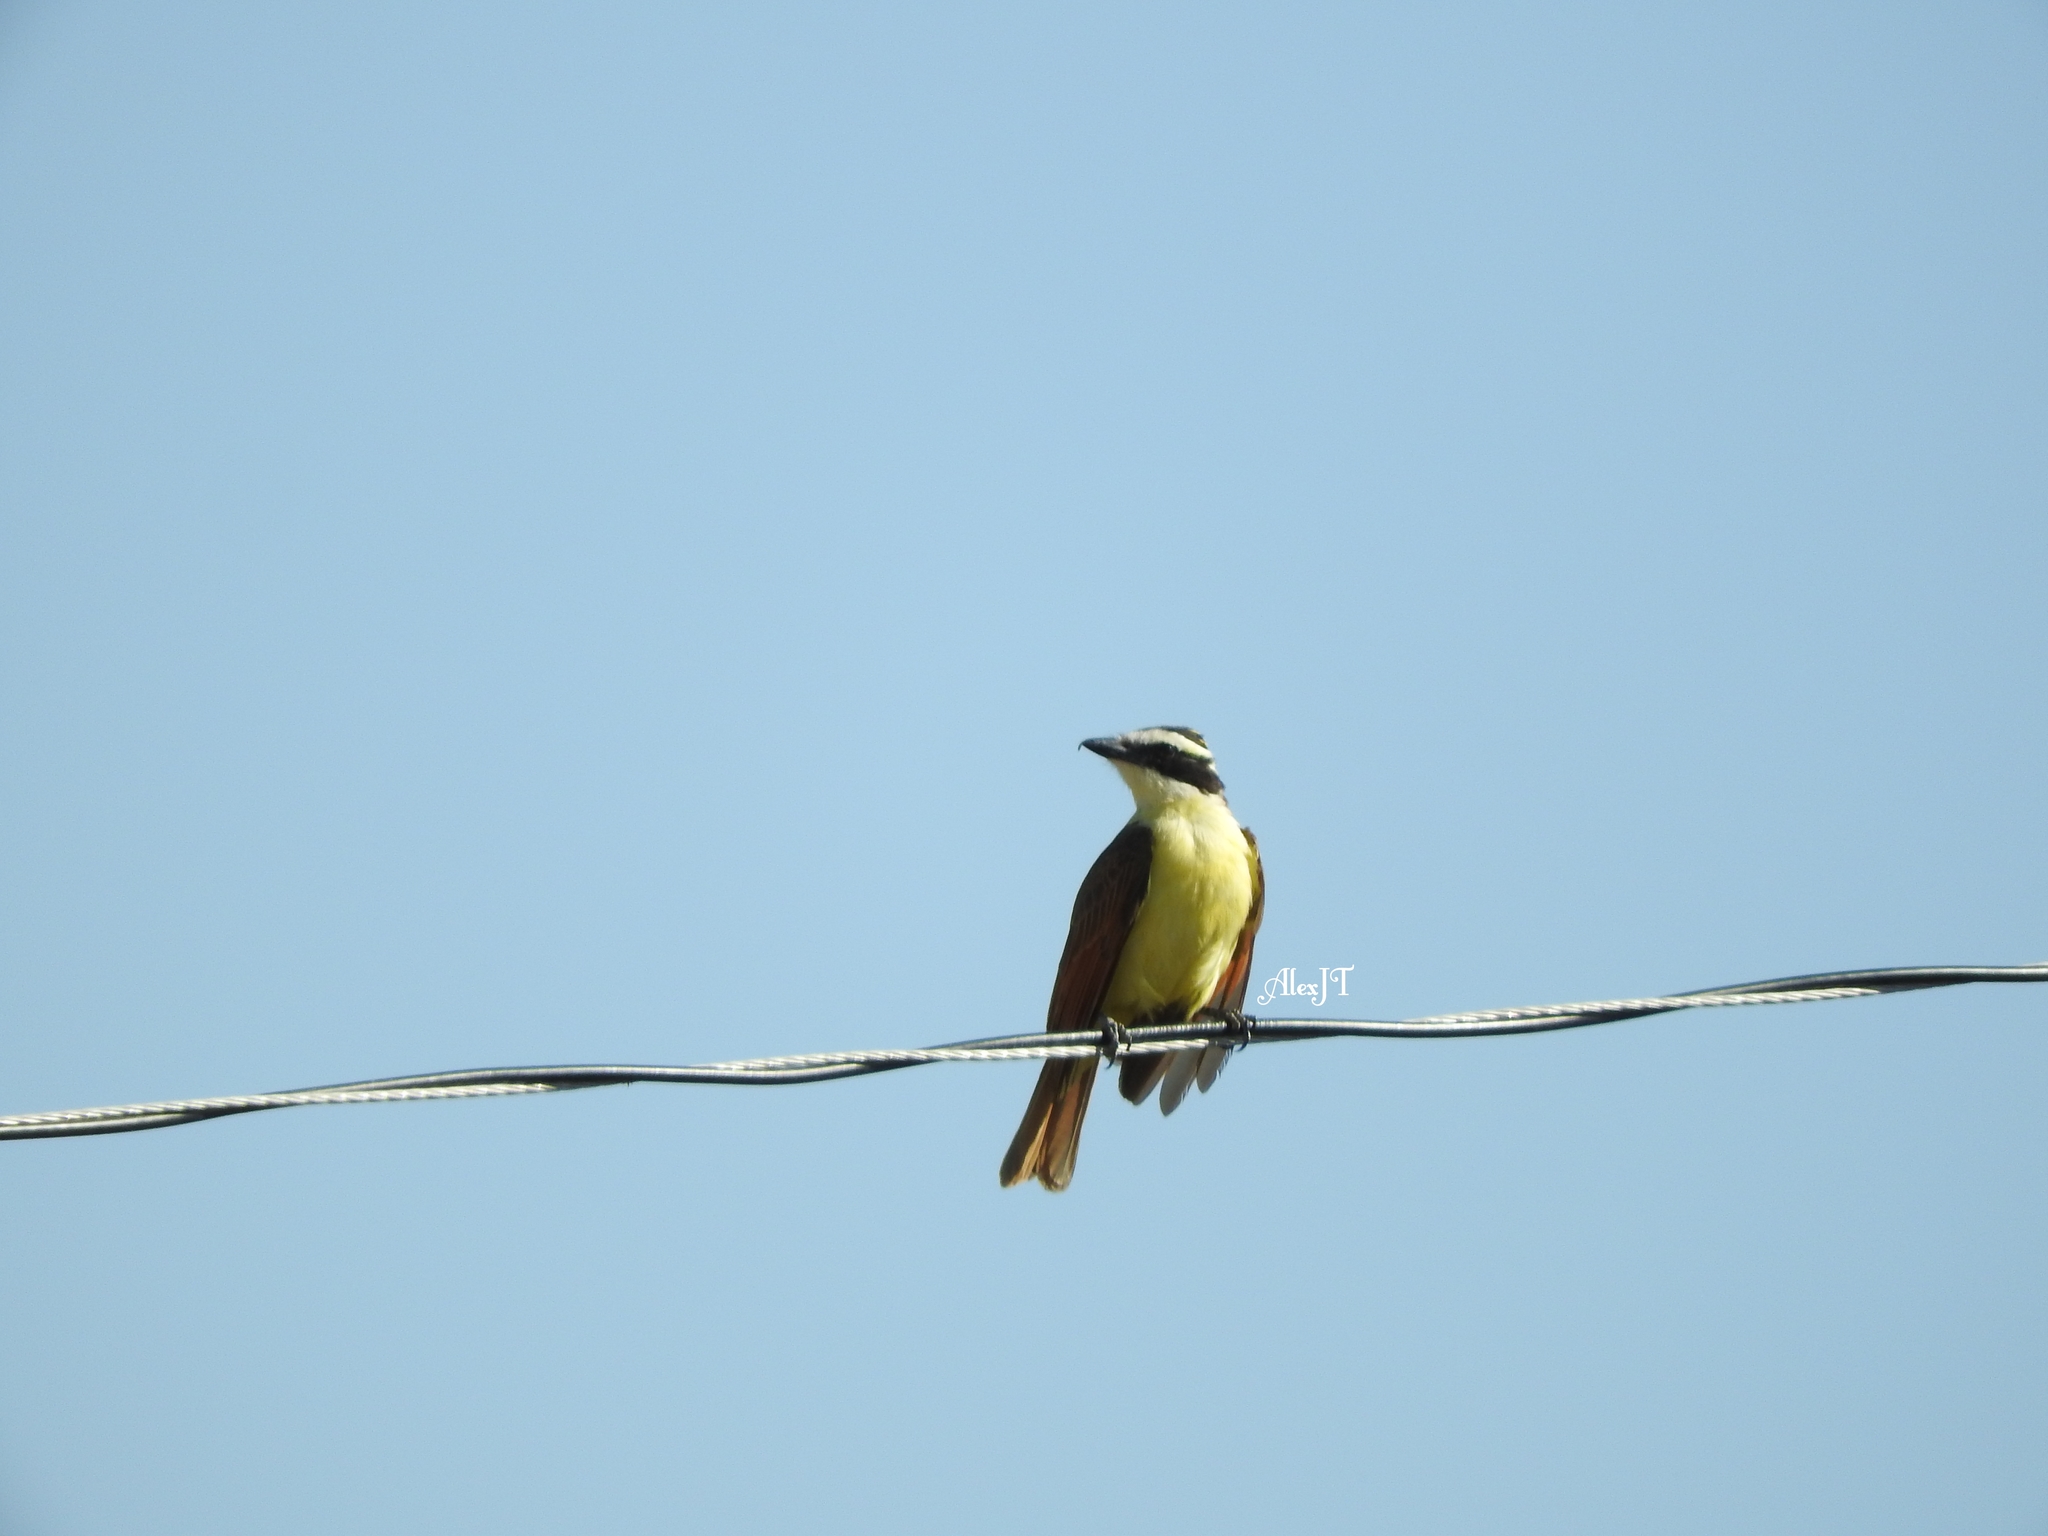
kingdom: Animalia
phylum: Chordata
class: Aves
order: Passeriformes
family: Tyrannidae
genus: Pitangus
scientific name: Pitangus sulphuratus
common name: Great kiskadee
